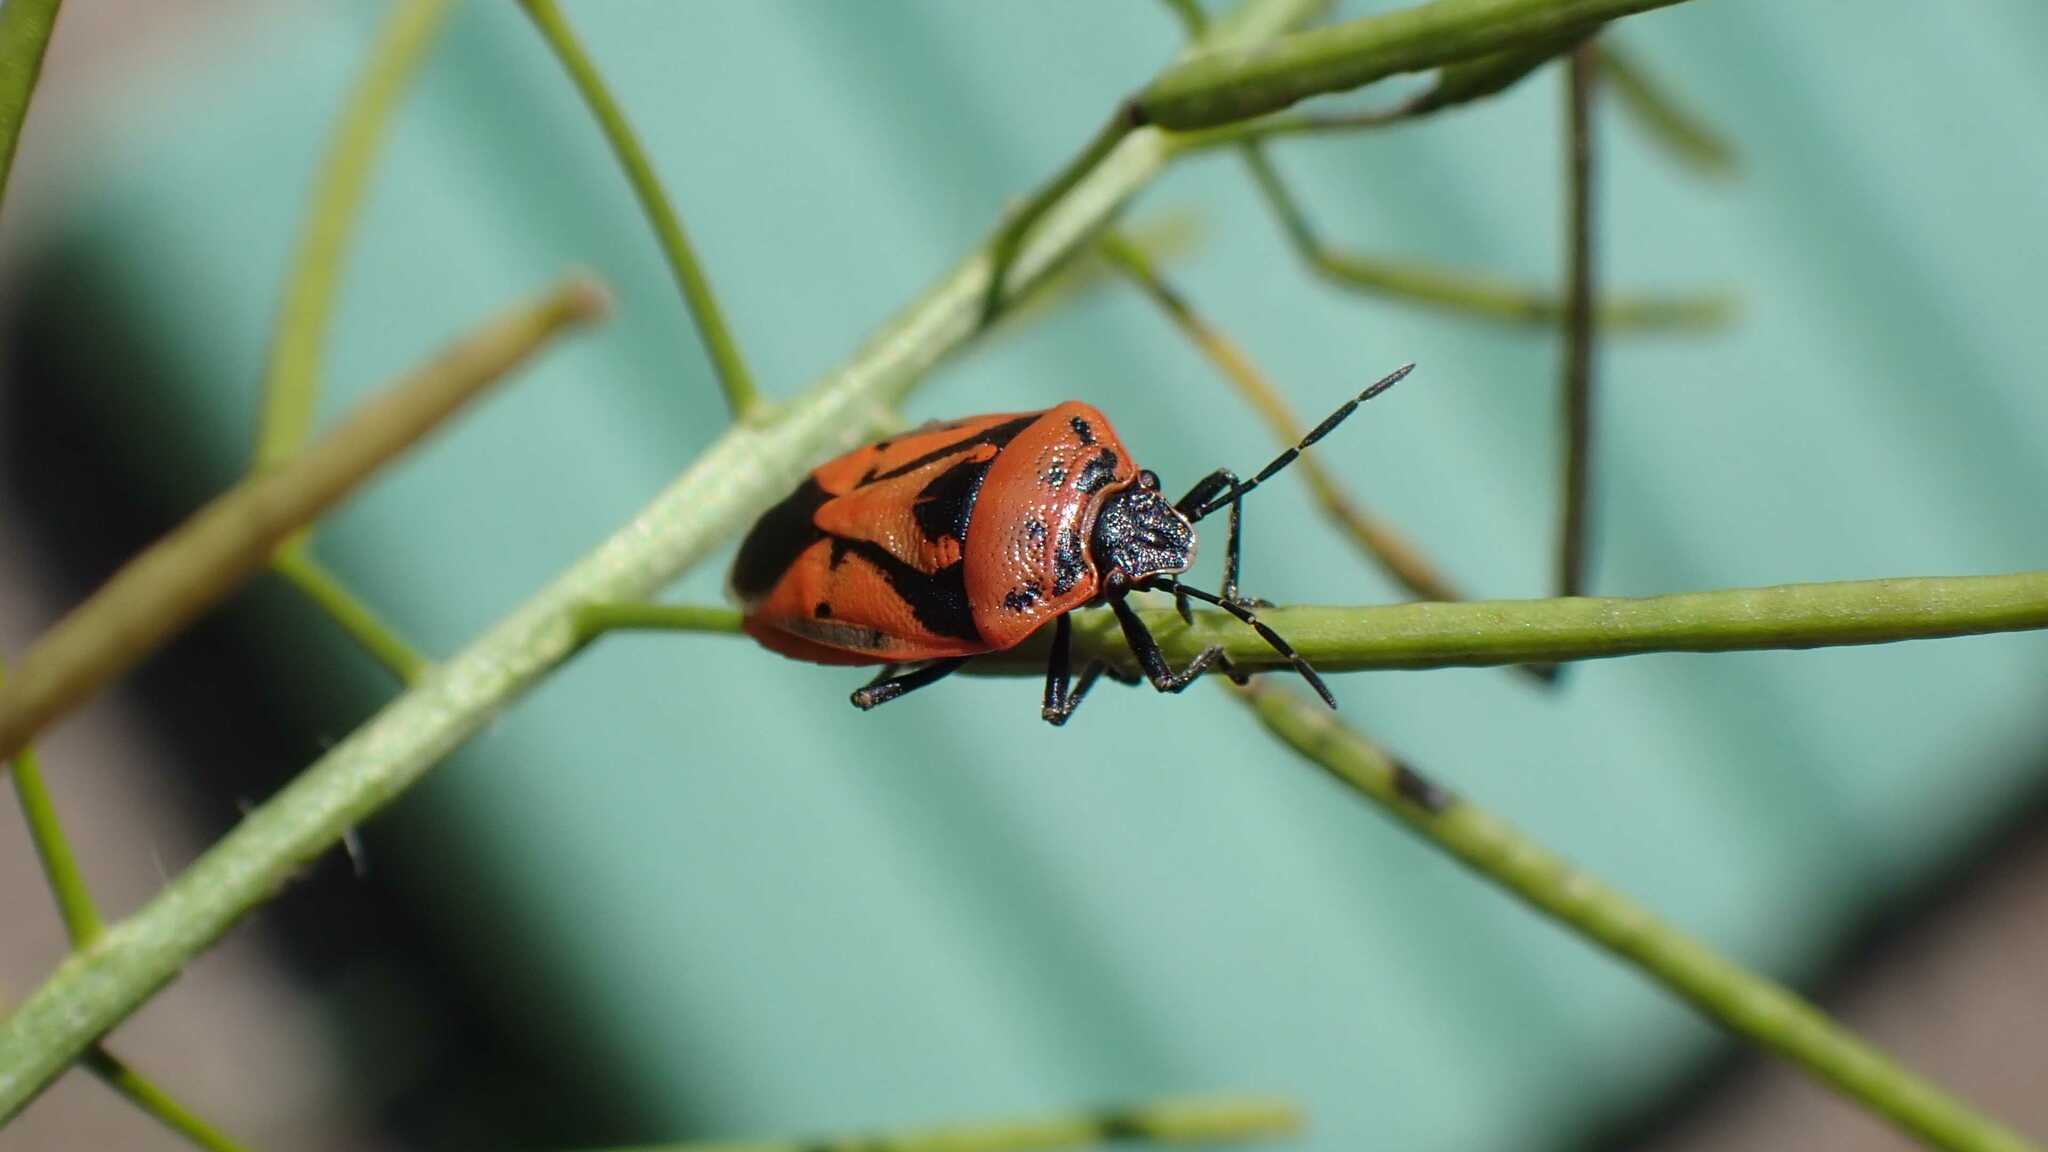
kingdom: Animalia
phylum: Arthropoda
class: Insecta
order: Hemiptera
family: Pentatomidae
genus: Eurydema
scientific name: Eurydema ornata
